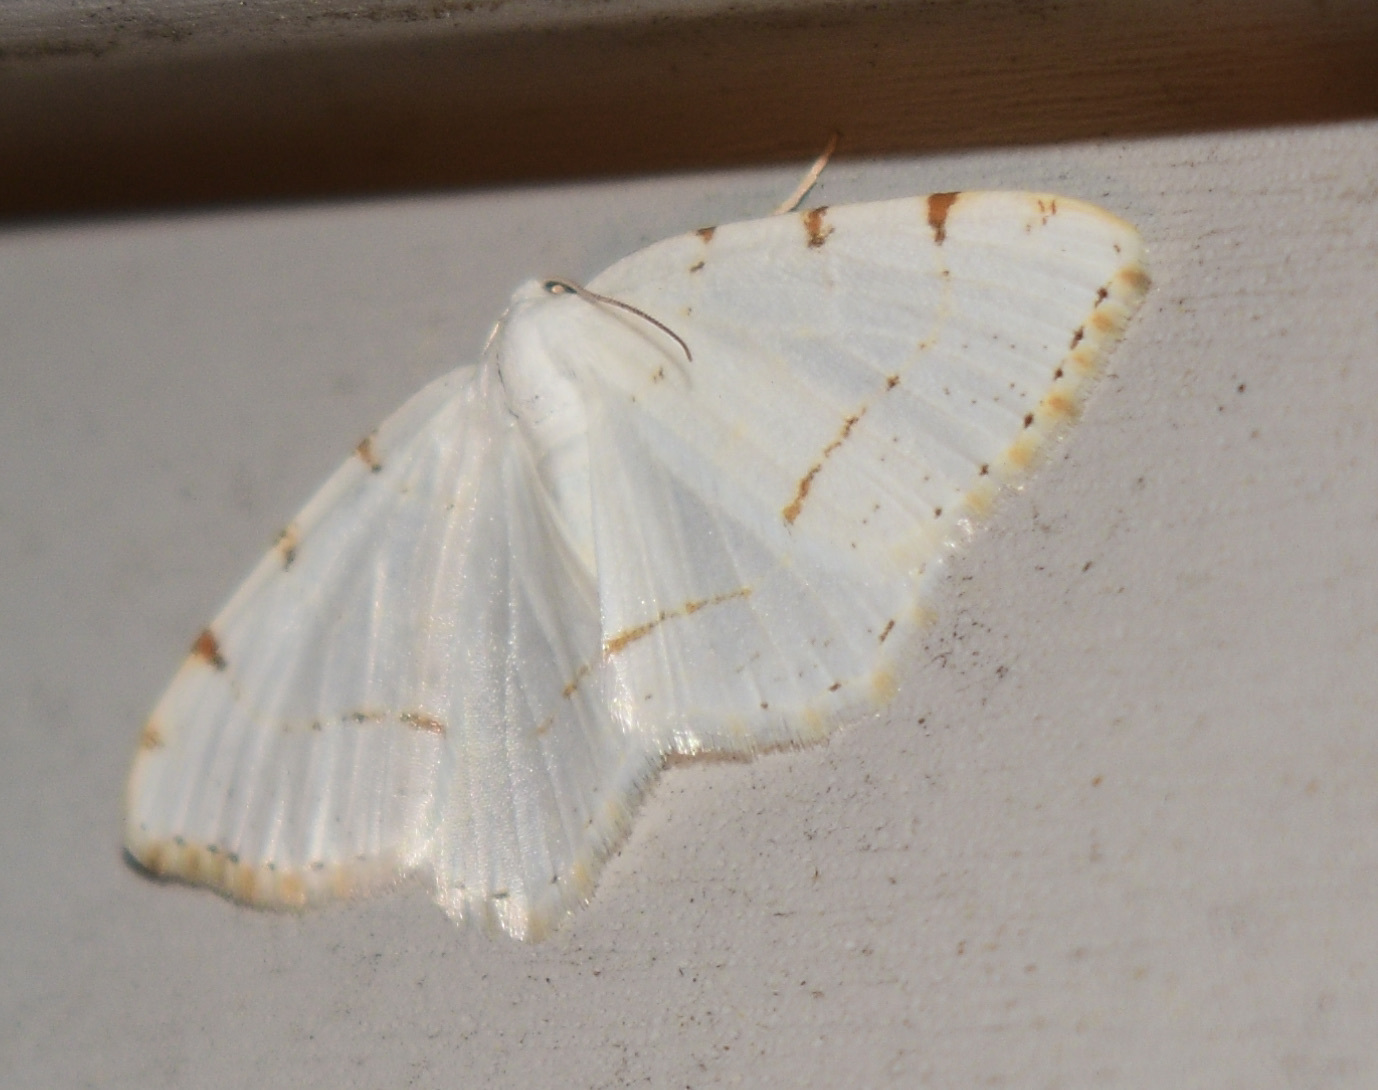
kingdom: Animalia
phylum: Arthropoda
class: Insecta
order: Lepidoptera
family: Geometridae
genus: Macaria
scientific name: Macaria pustularia
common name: Lesser maple spanworm moth
